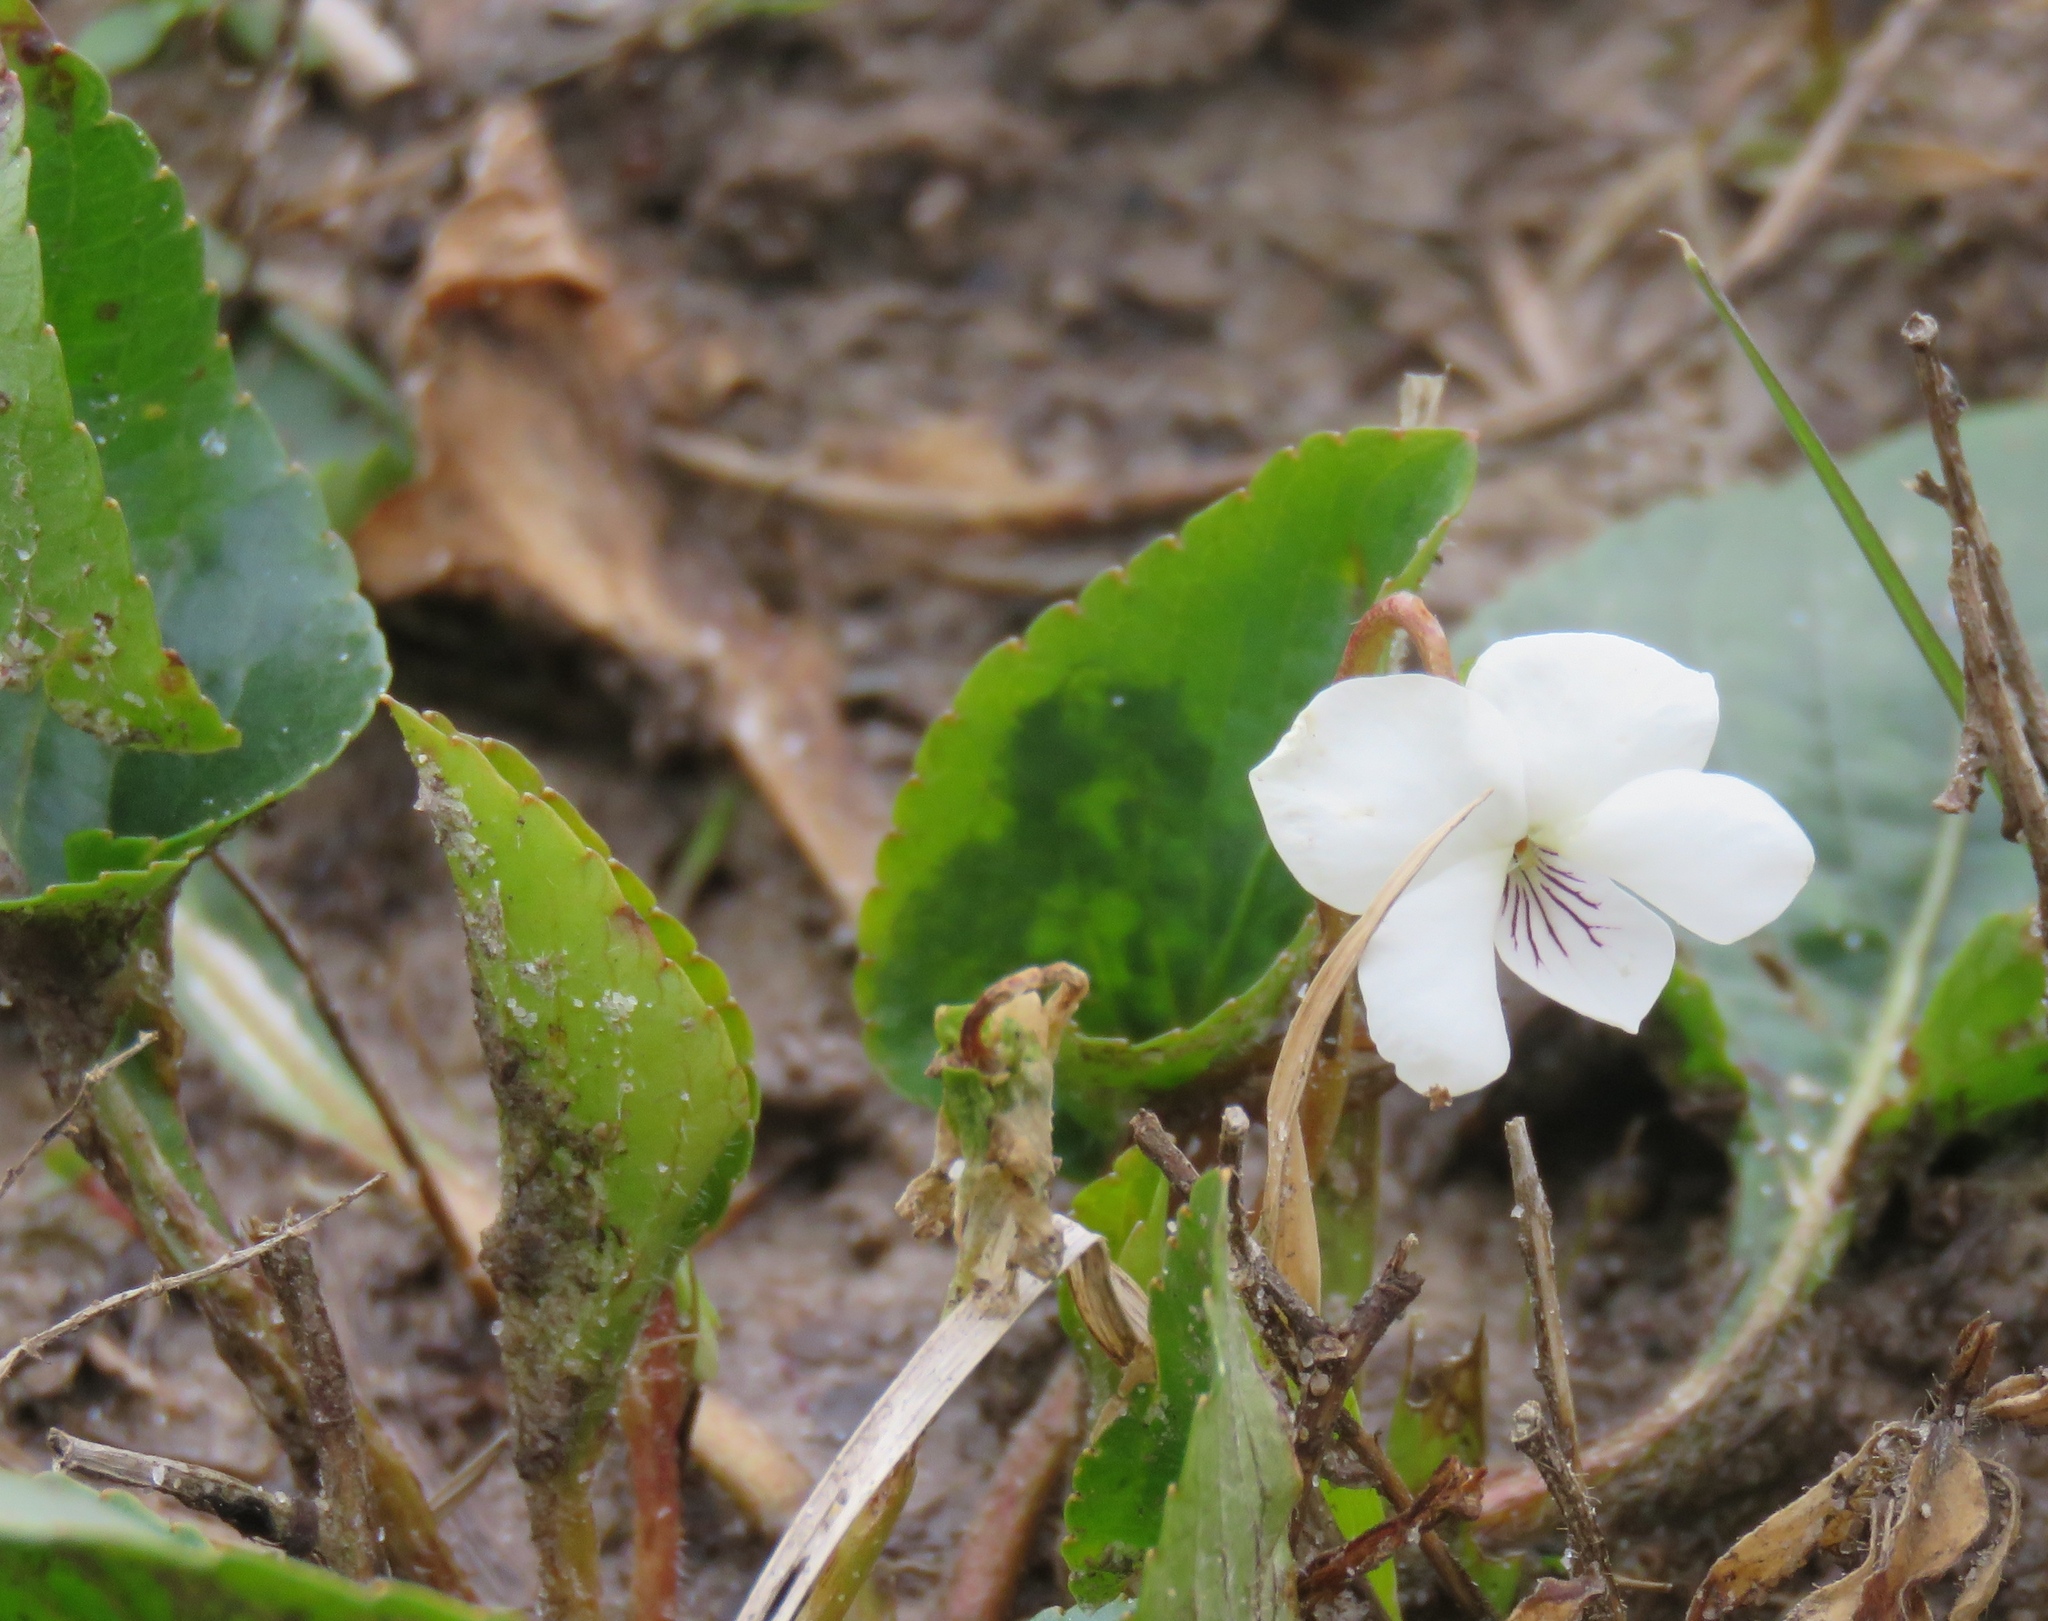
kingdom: Plantae
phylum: Tracheophyta
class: Magnoliopsida
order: Malpighiales
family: Violaceae
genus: Viola
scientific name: Viola primulifolia
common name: Primrose-leaf violet
